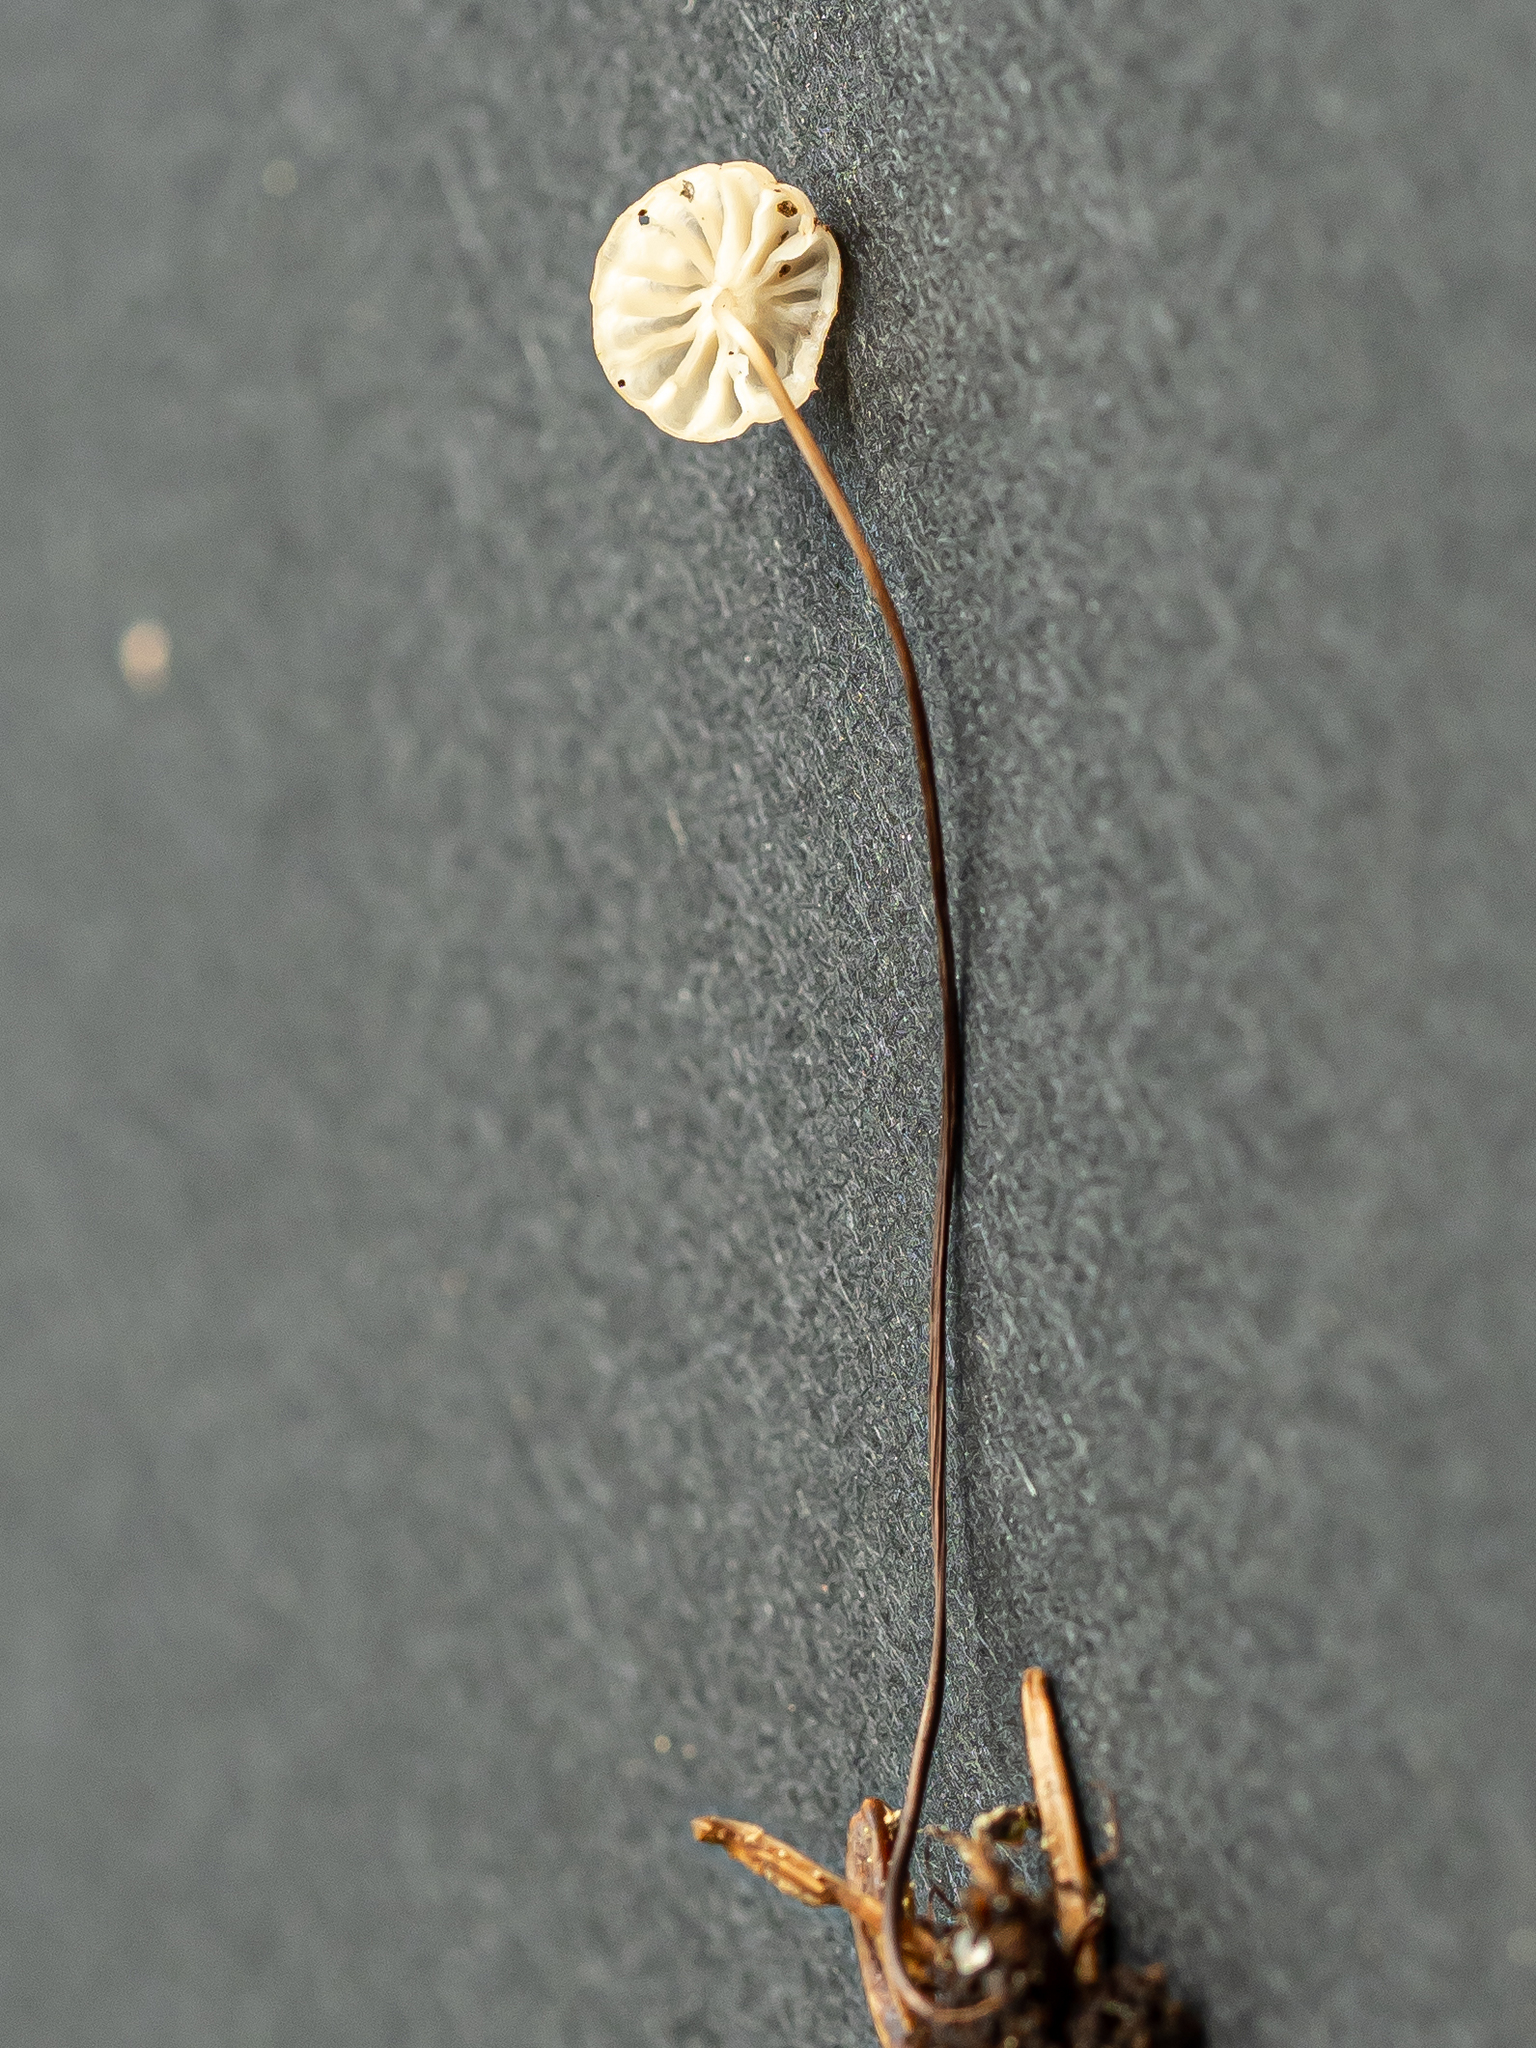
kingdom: Fungi
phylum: Basidiomycota
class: Agaricomycetes
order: Agaricales
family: Marasmiaceae
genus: Marasmius
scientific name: Marasmius wettsteinii
